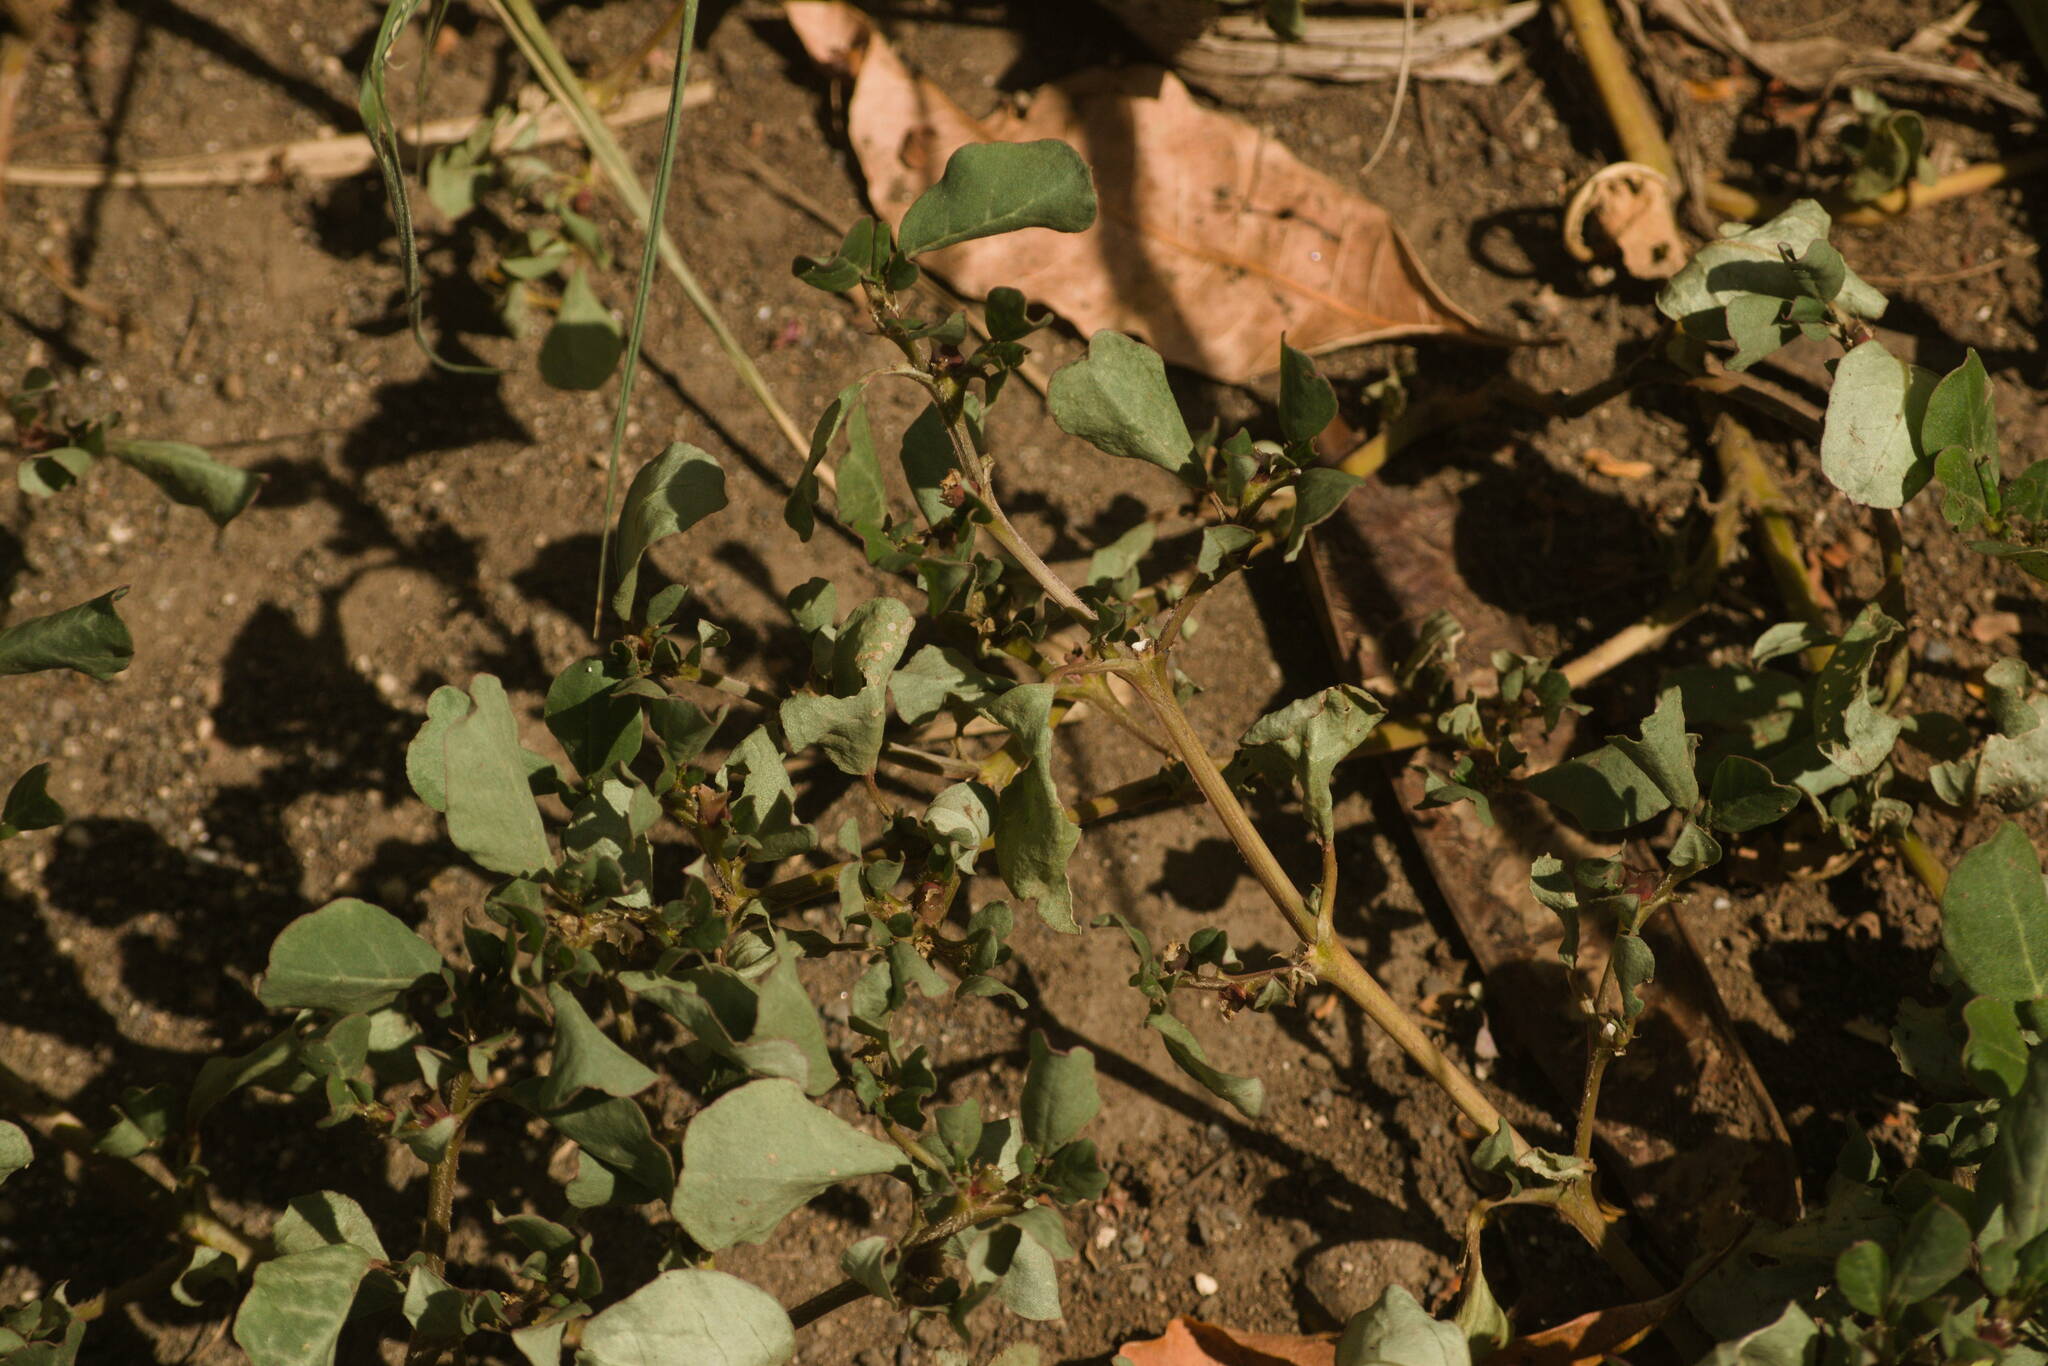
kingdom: Plantae
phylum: Tracheophyta
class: Magnoliopsida
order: Caryophyllales
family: Aizoaceae
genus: Trianthema
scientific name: Trianthema portulacastrum
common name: Desert horsepurslane
